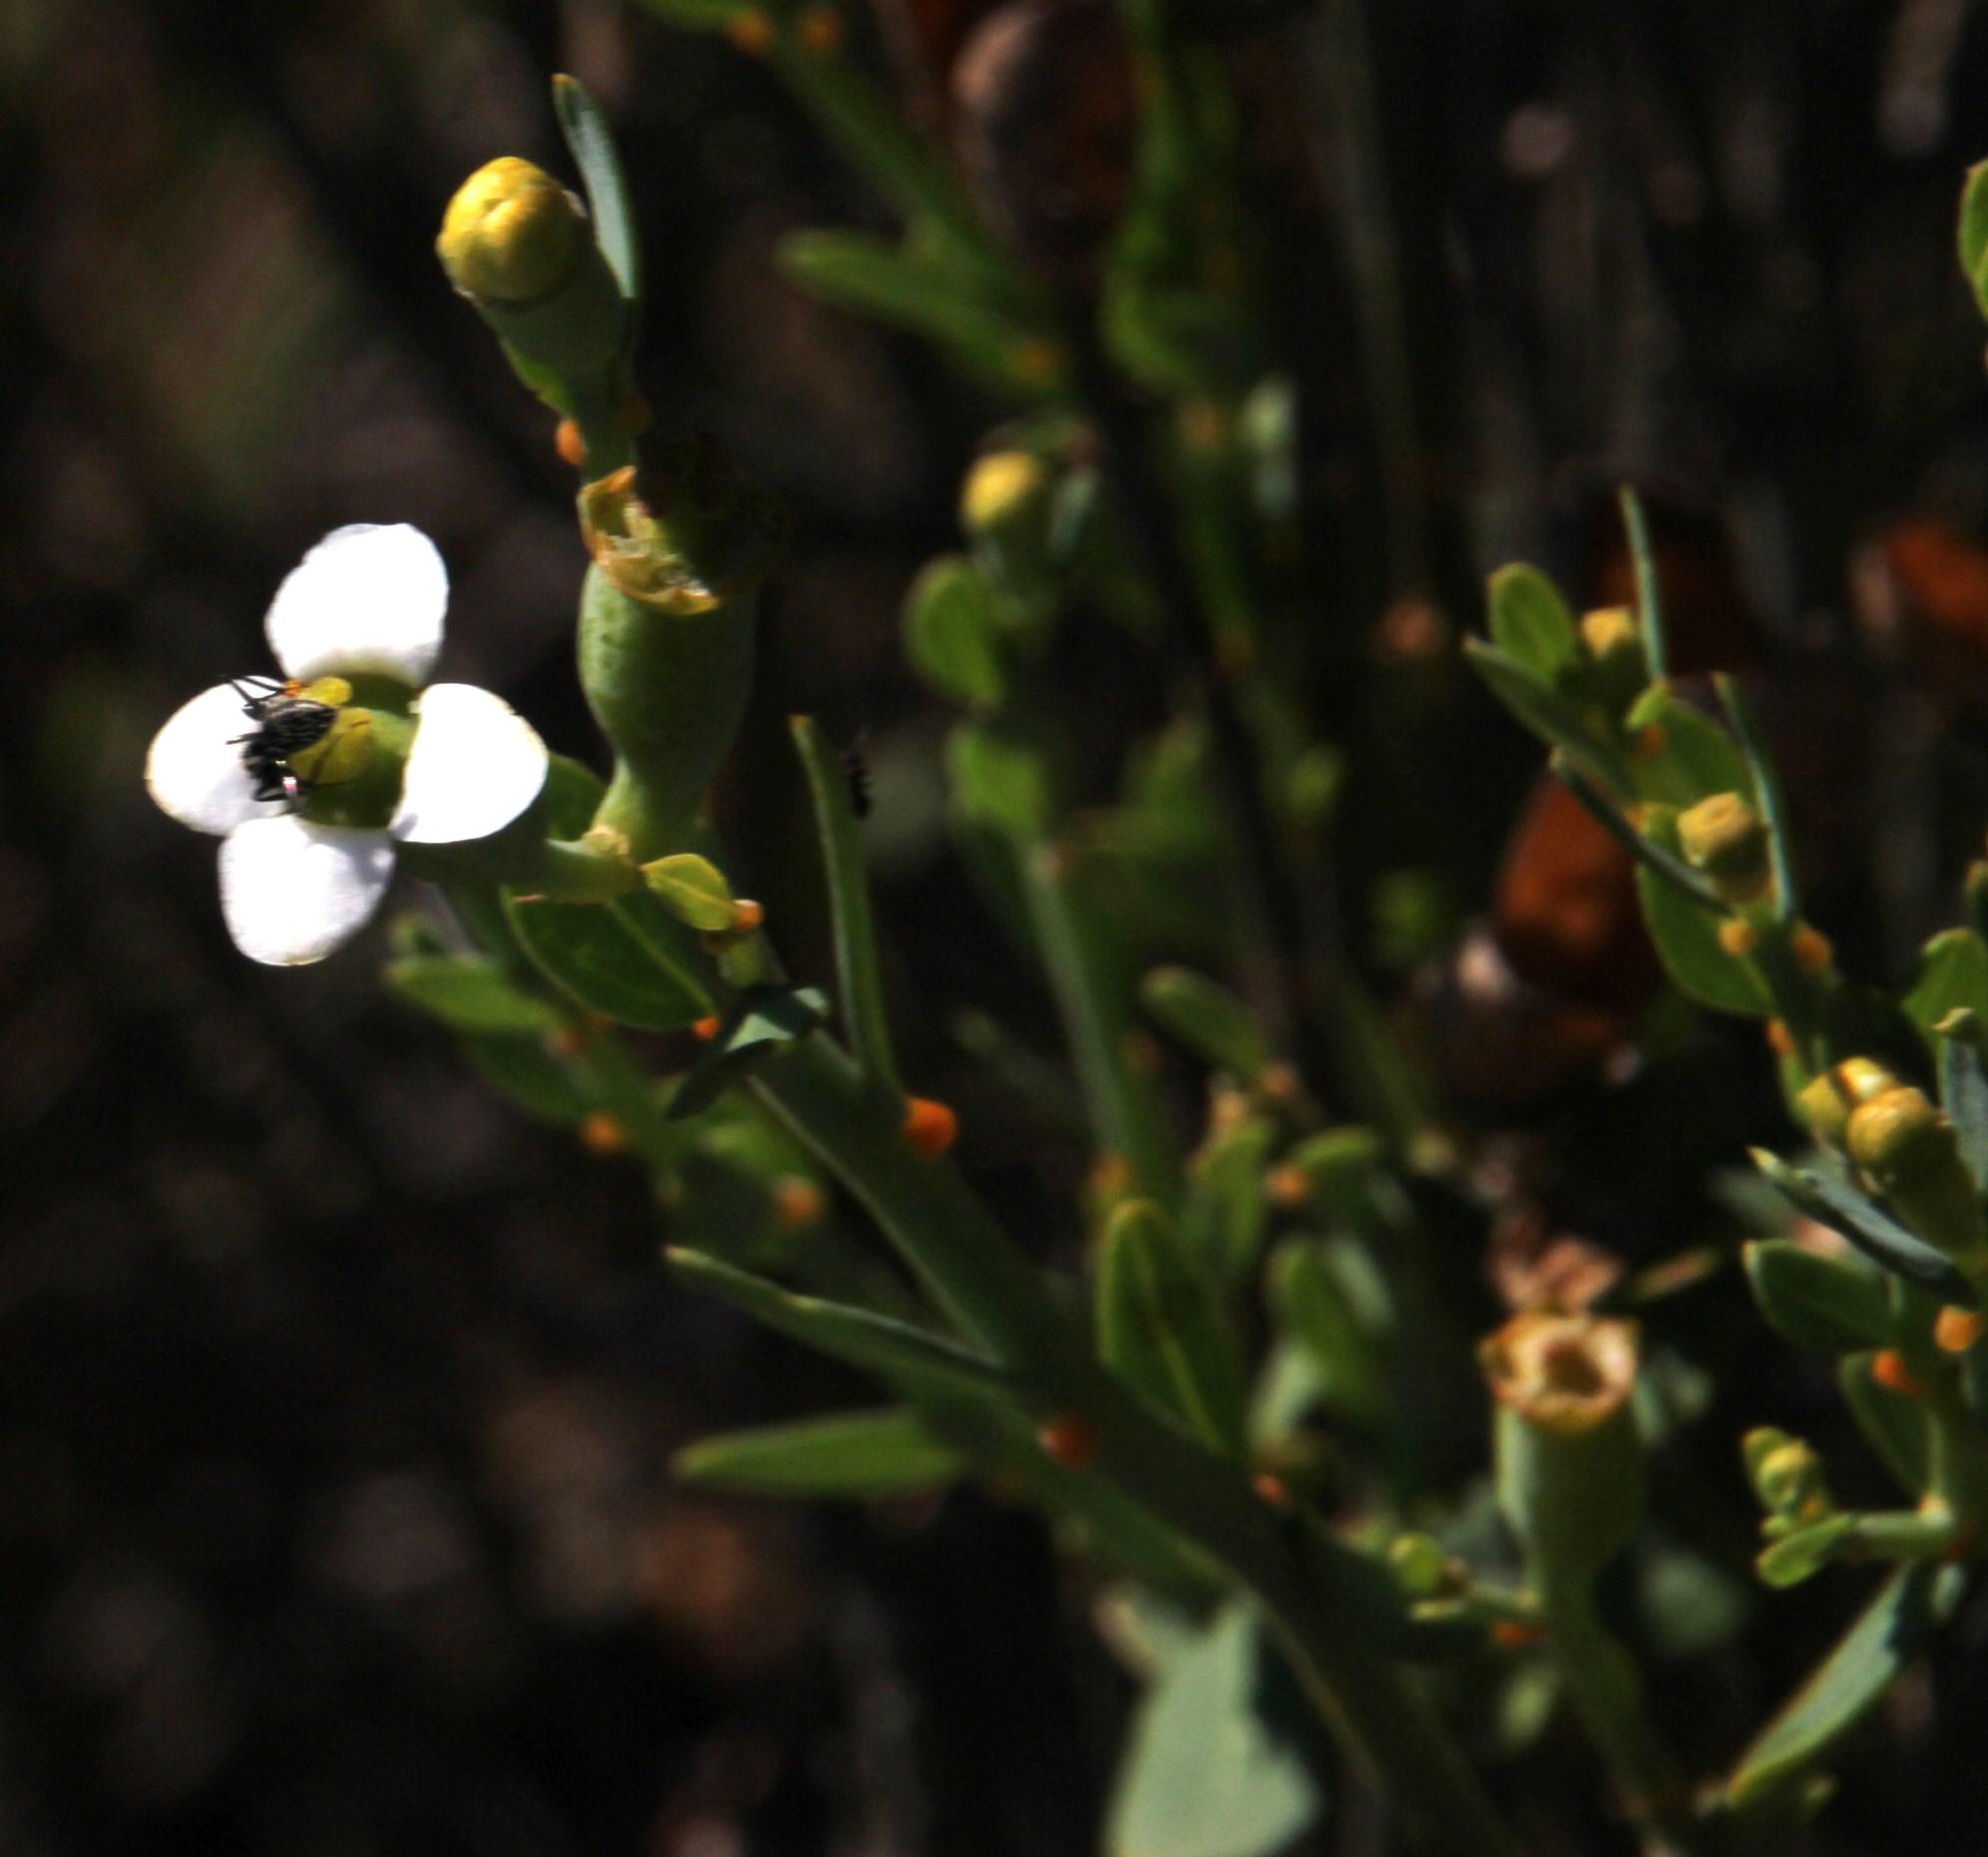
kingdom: Plantae
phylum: Tracheophyta
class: Magnoliopsida
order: Solanales
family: Montiniaceae
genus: Montinia
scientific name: Montinia caryophyllacea
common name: Wild clove-bush
